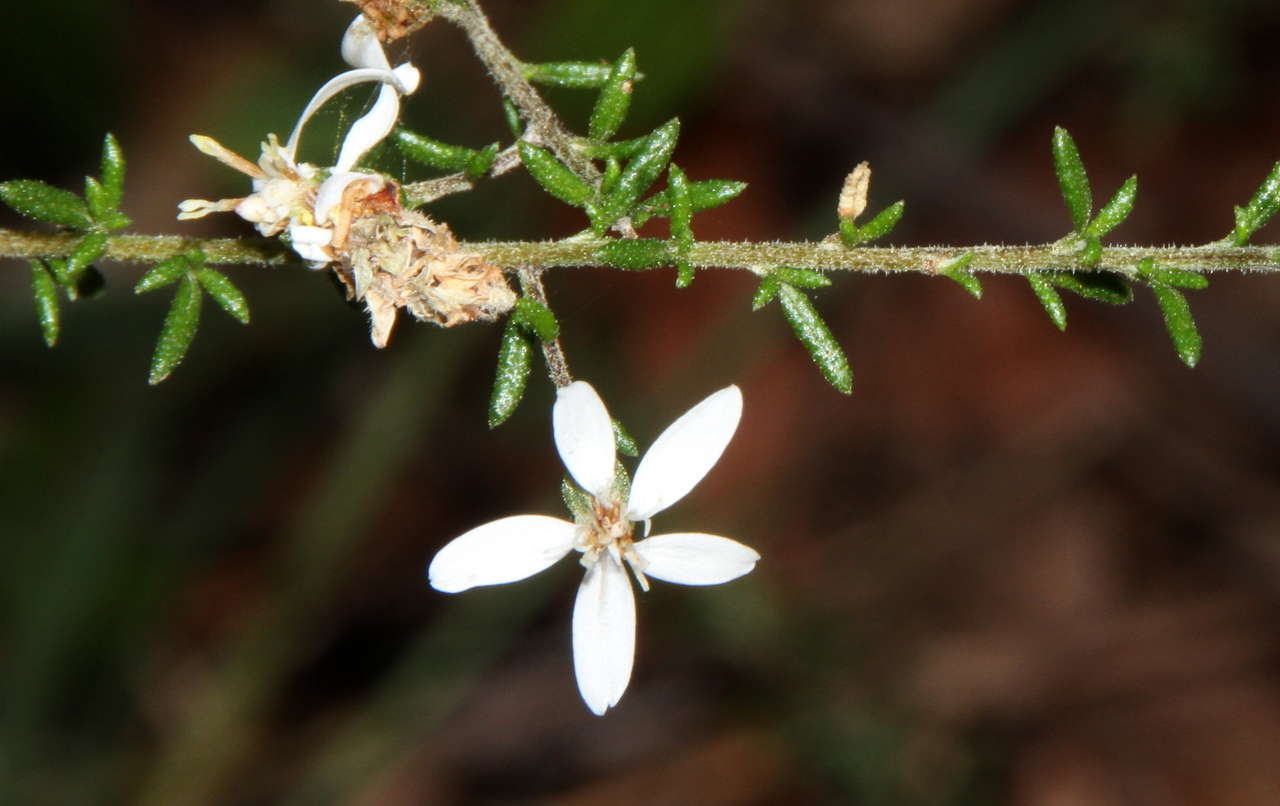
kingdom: Plantae
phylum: Tracheophyta
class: Magnoliopsida
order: Asterales
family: Asteraceae
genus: Olearia
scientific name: Olearia ramulosa
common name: Twiggy daisybush
